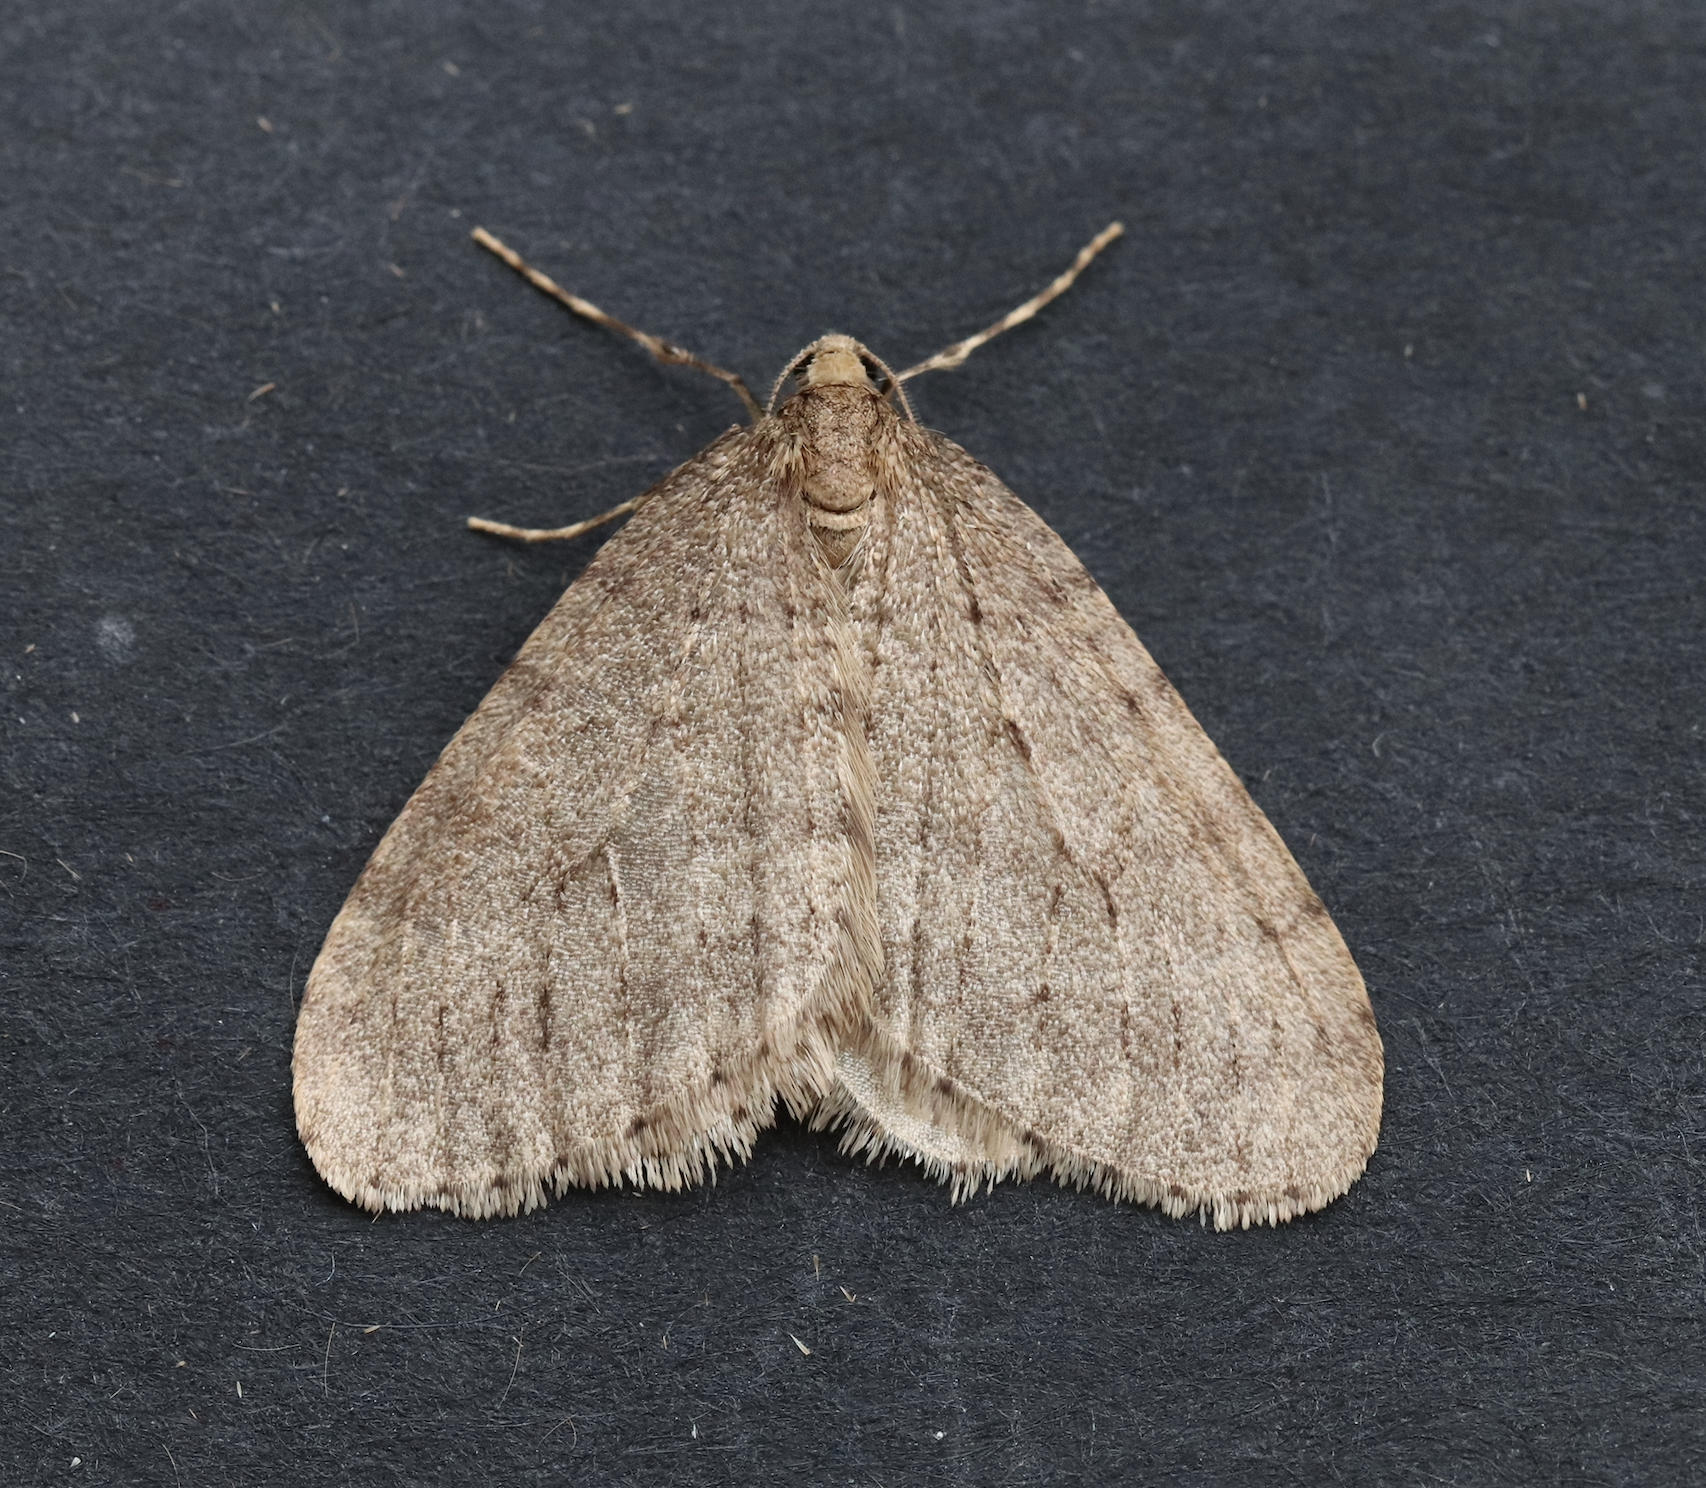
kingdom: Animalia
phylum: Arthropoda
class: Insecta
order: Lepidoptera
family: Geometridae
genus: Operophtera
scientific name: Operophtera brumata
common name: Winter moth
